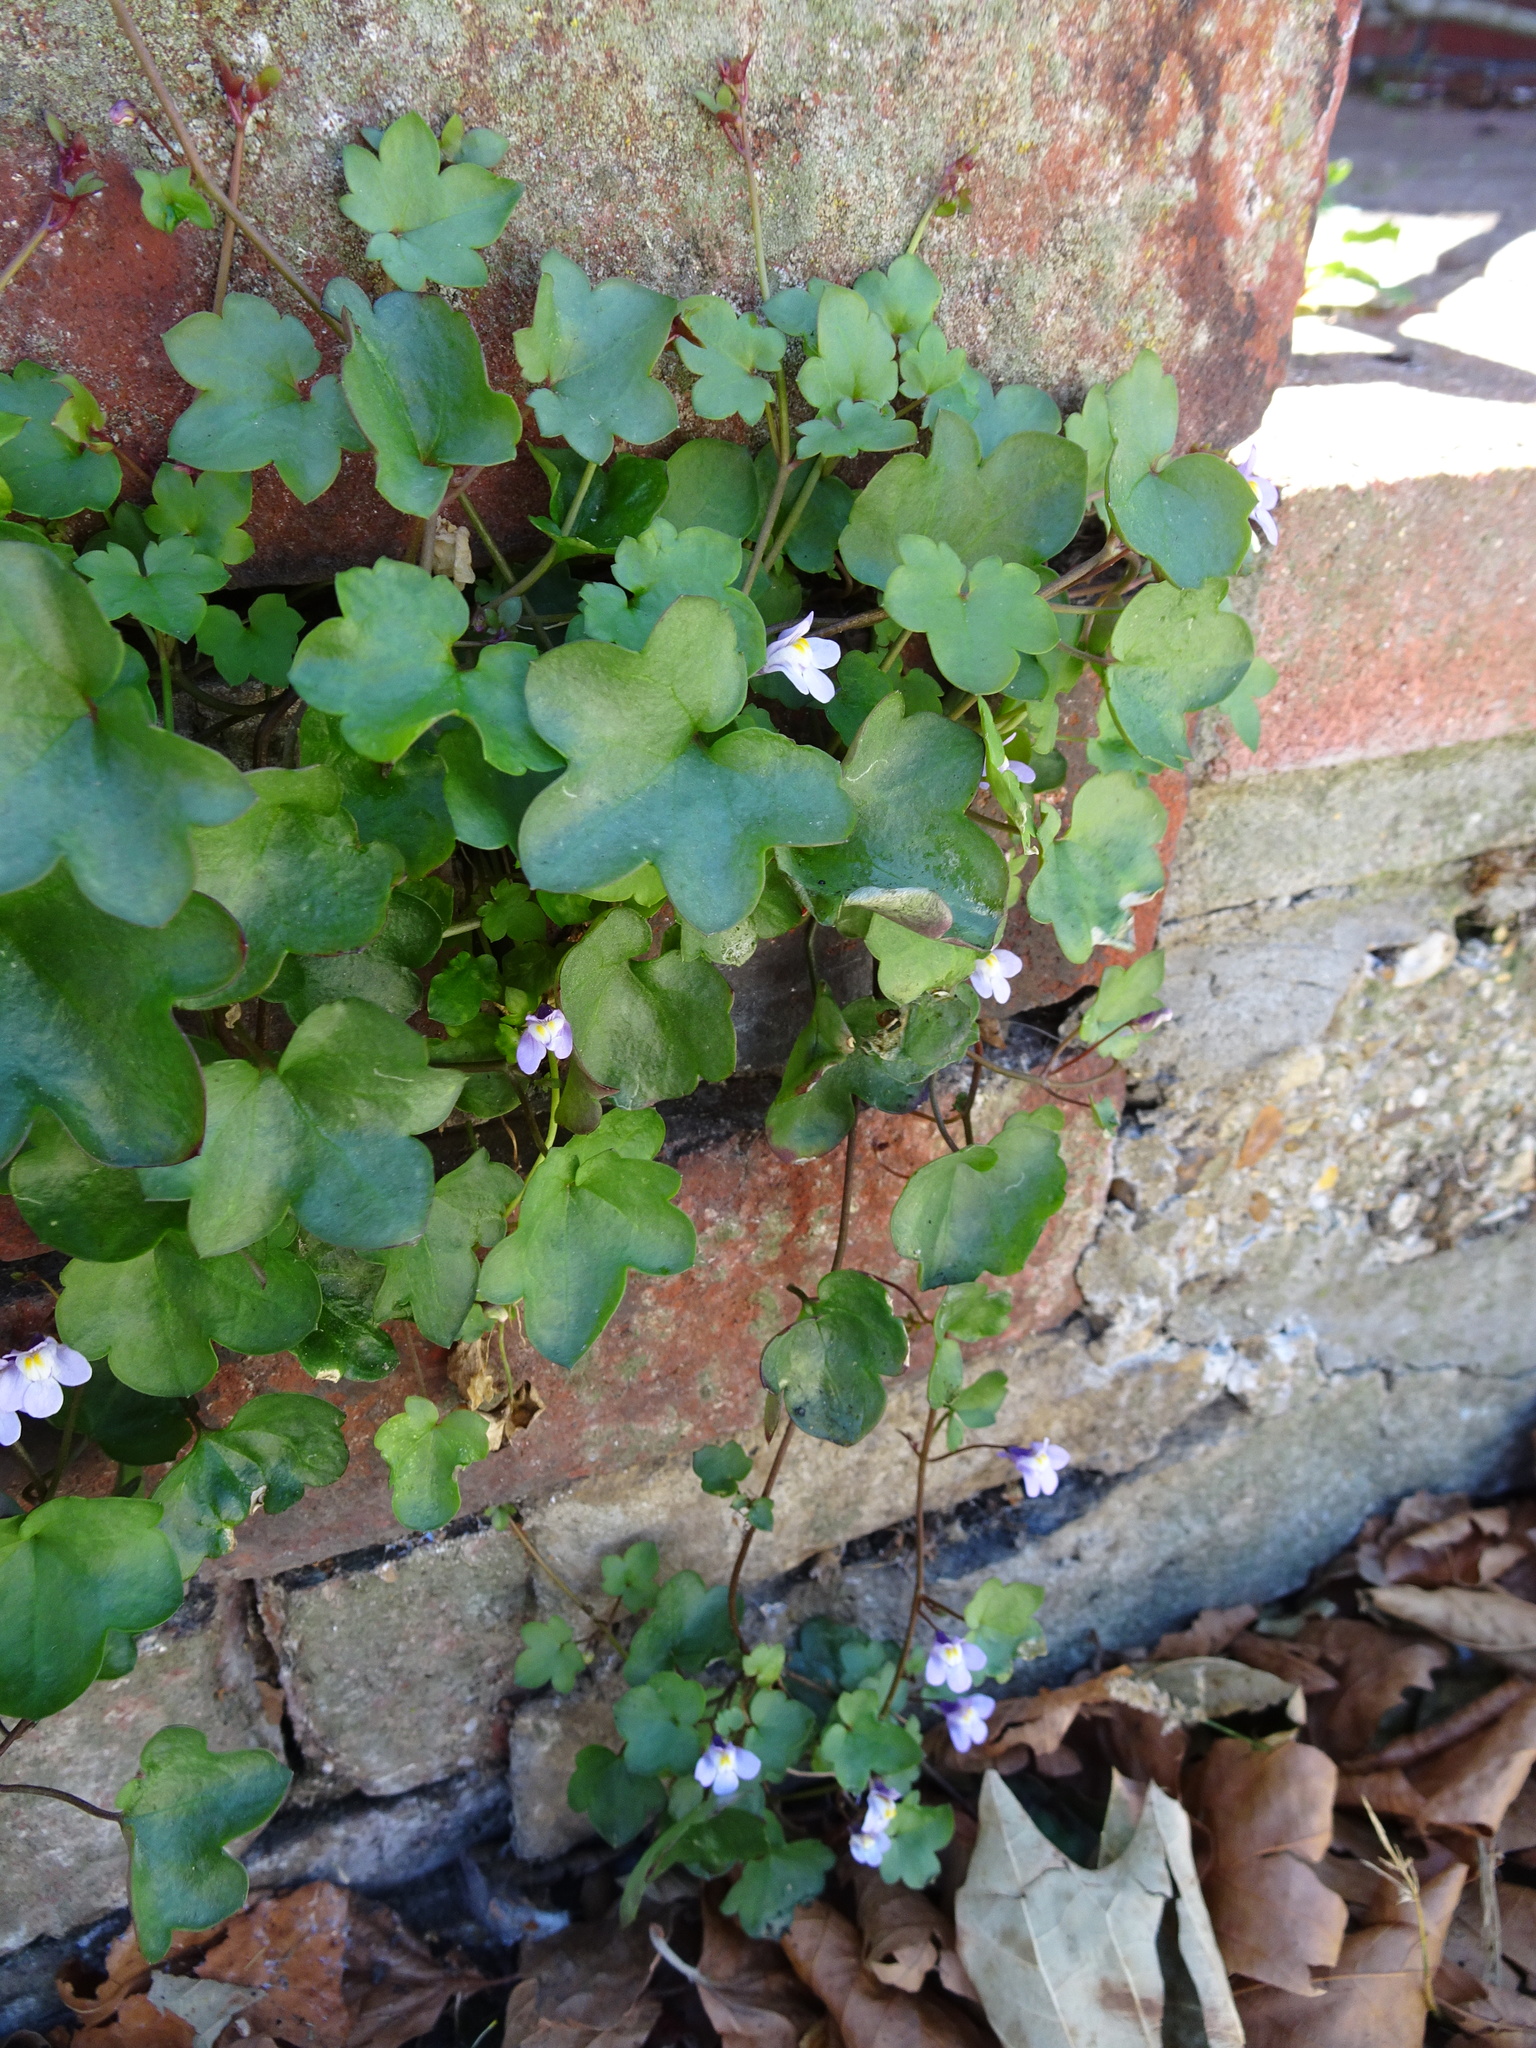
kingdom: Plantae
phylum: Tracheophyta
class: Magnoliopsida
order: Lamiales
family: Plantaginaceae
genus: Cymbalaria
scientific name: Cymbalaria muralis
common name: Ivy-leaved toadflax
